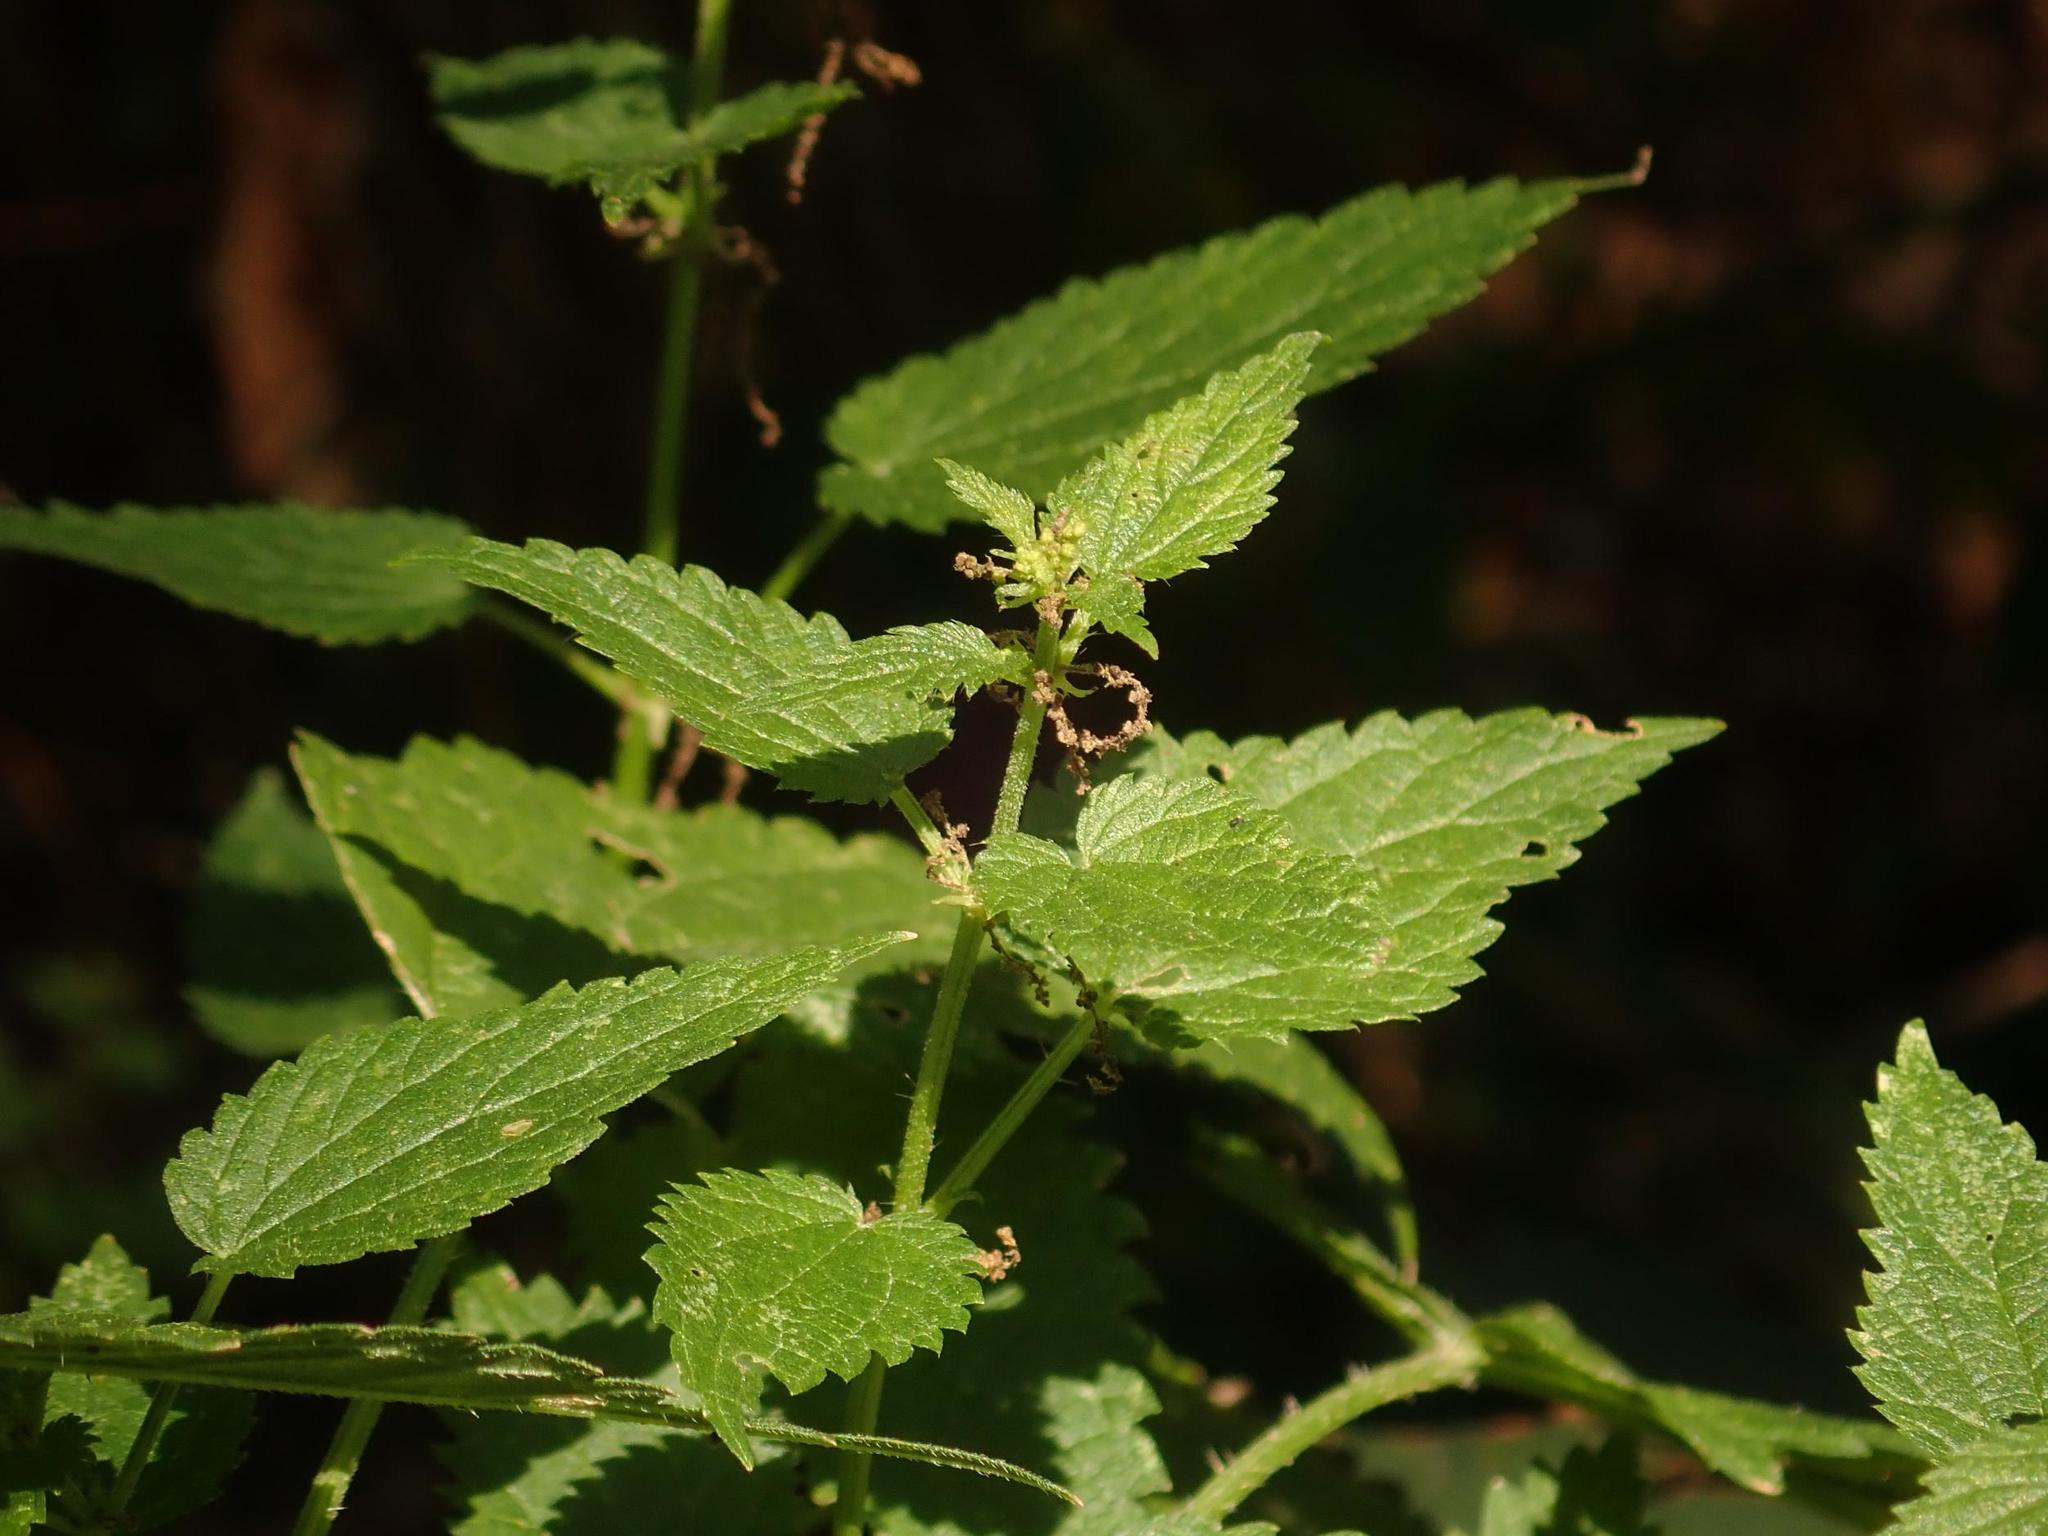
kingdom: Plantae
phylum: Tracheophyta
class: Magnoliopsida
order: Rosales
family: Urticaceae
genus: Urtica
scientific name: Urtica dioica
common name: Common nettle
